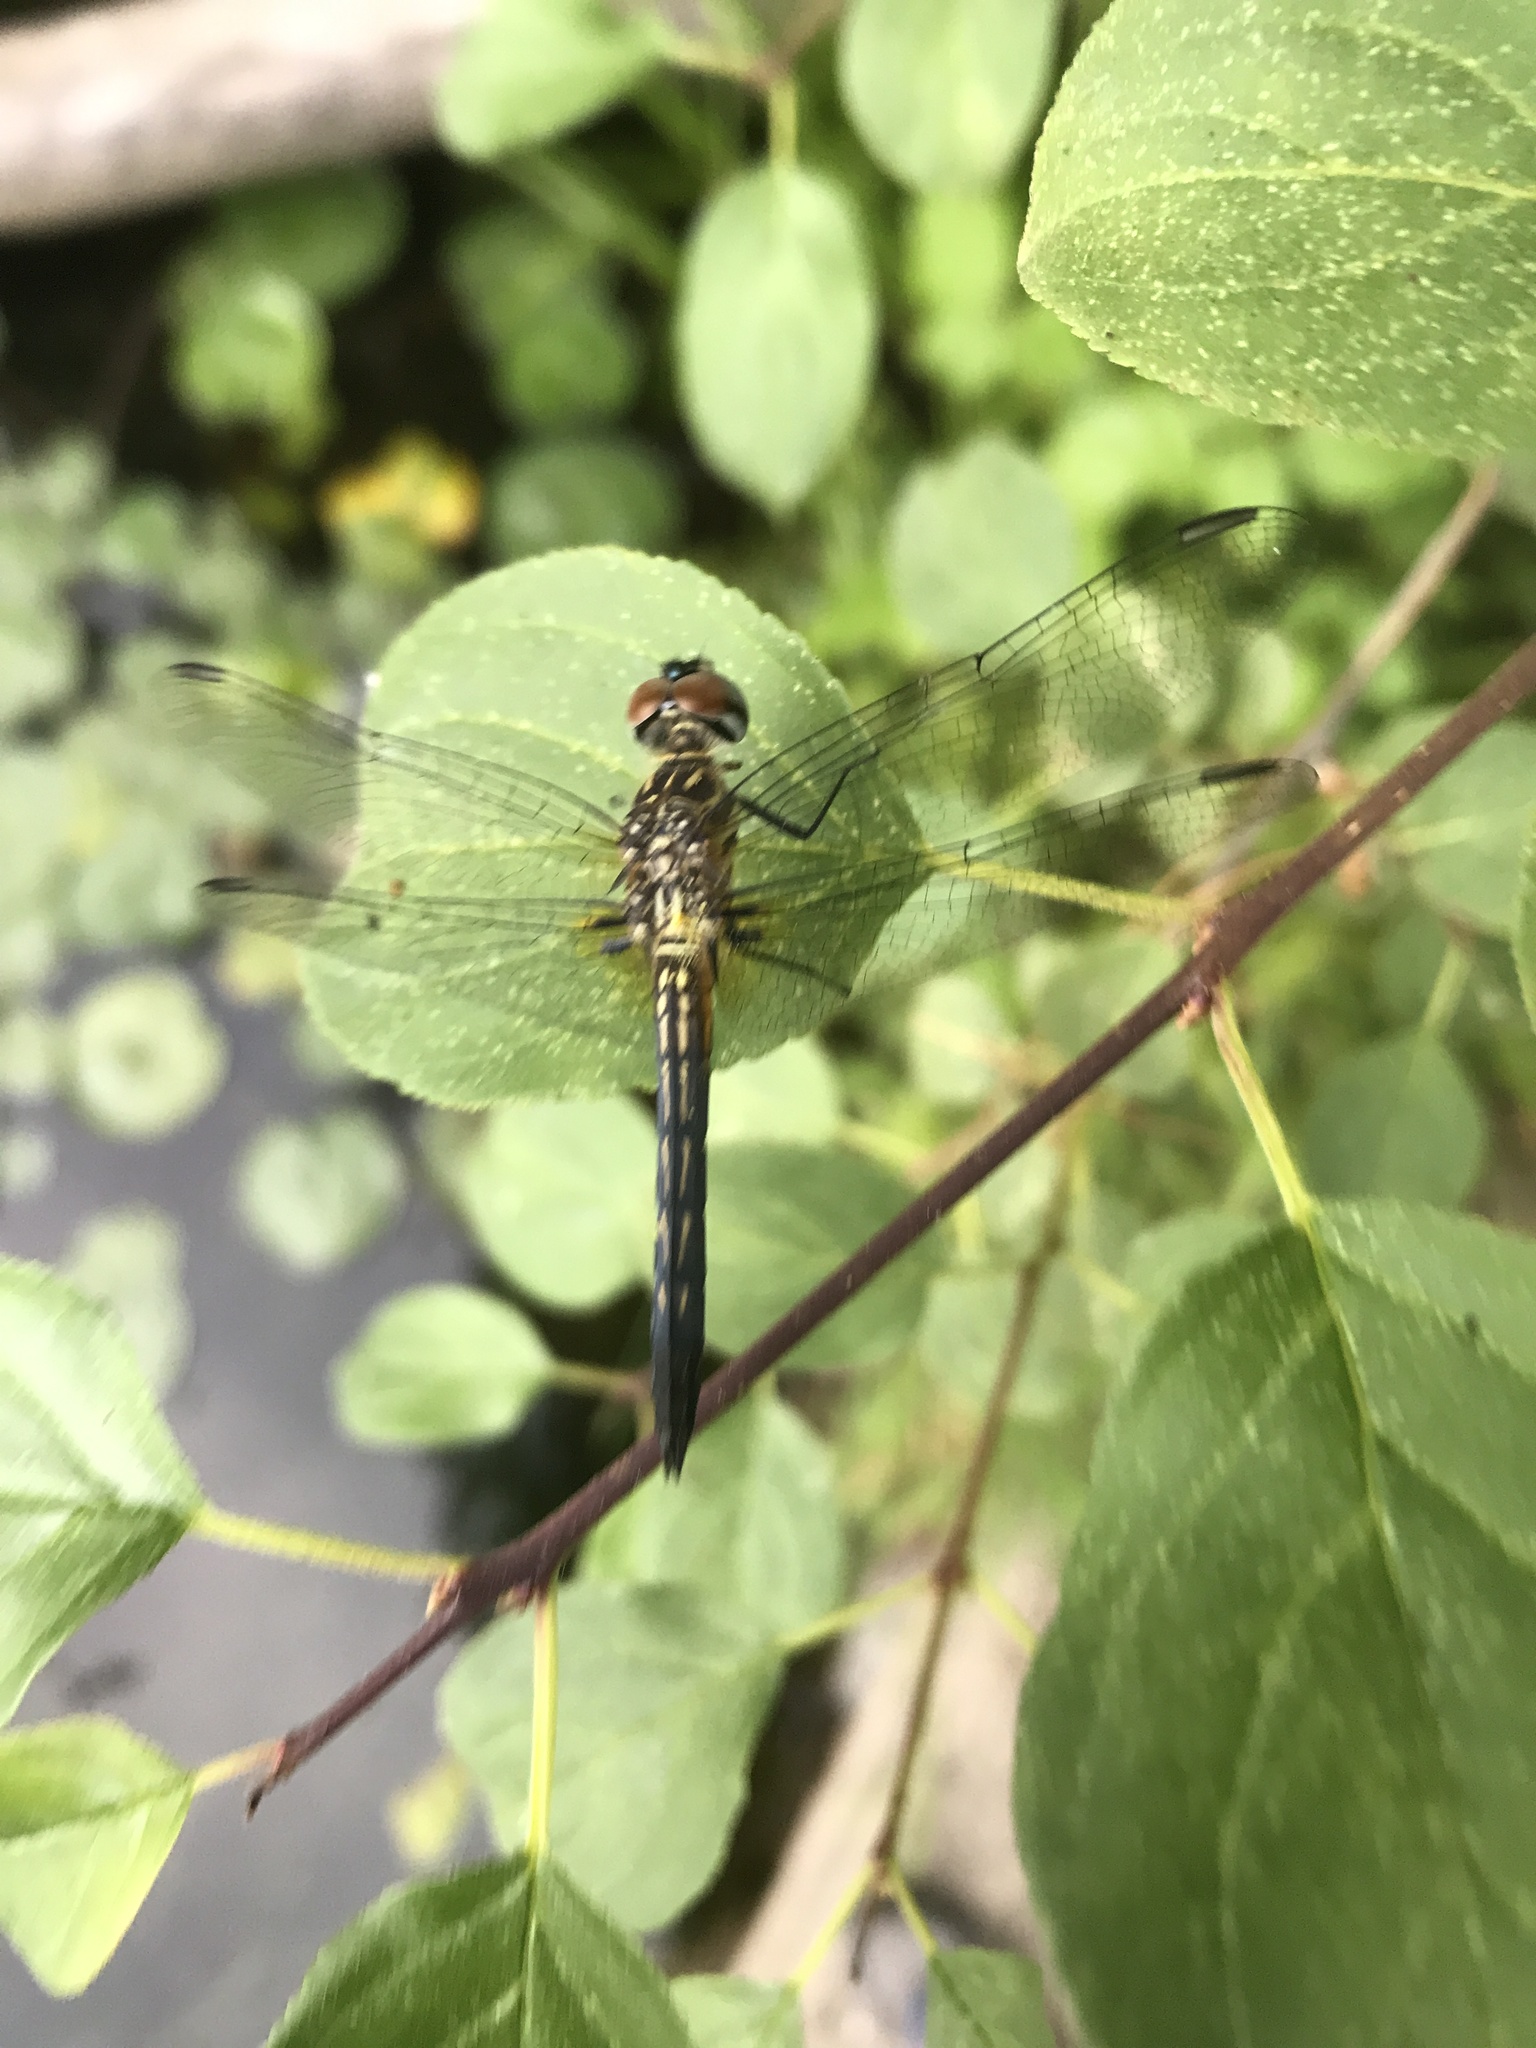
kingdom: Animalia
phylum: Arthropoda
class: Insecta
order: Odonata
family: Libellulidae
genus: Pachydiplax
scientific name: Pachydiplax longipennis
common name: Blue dasher
